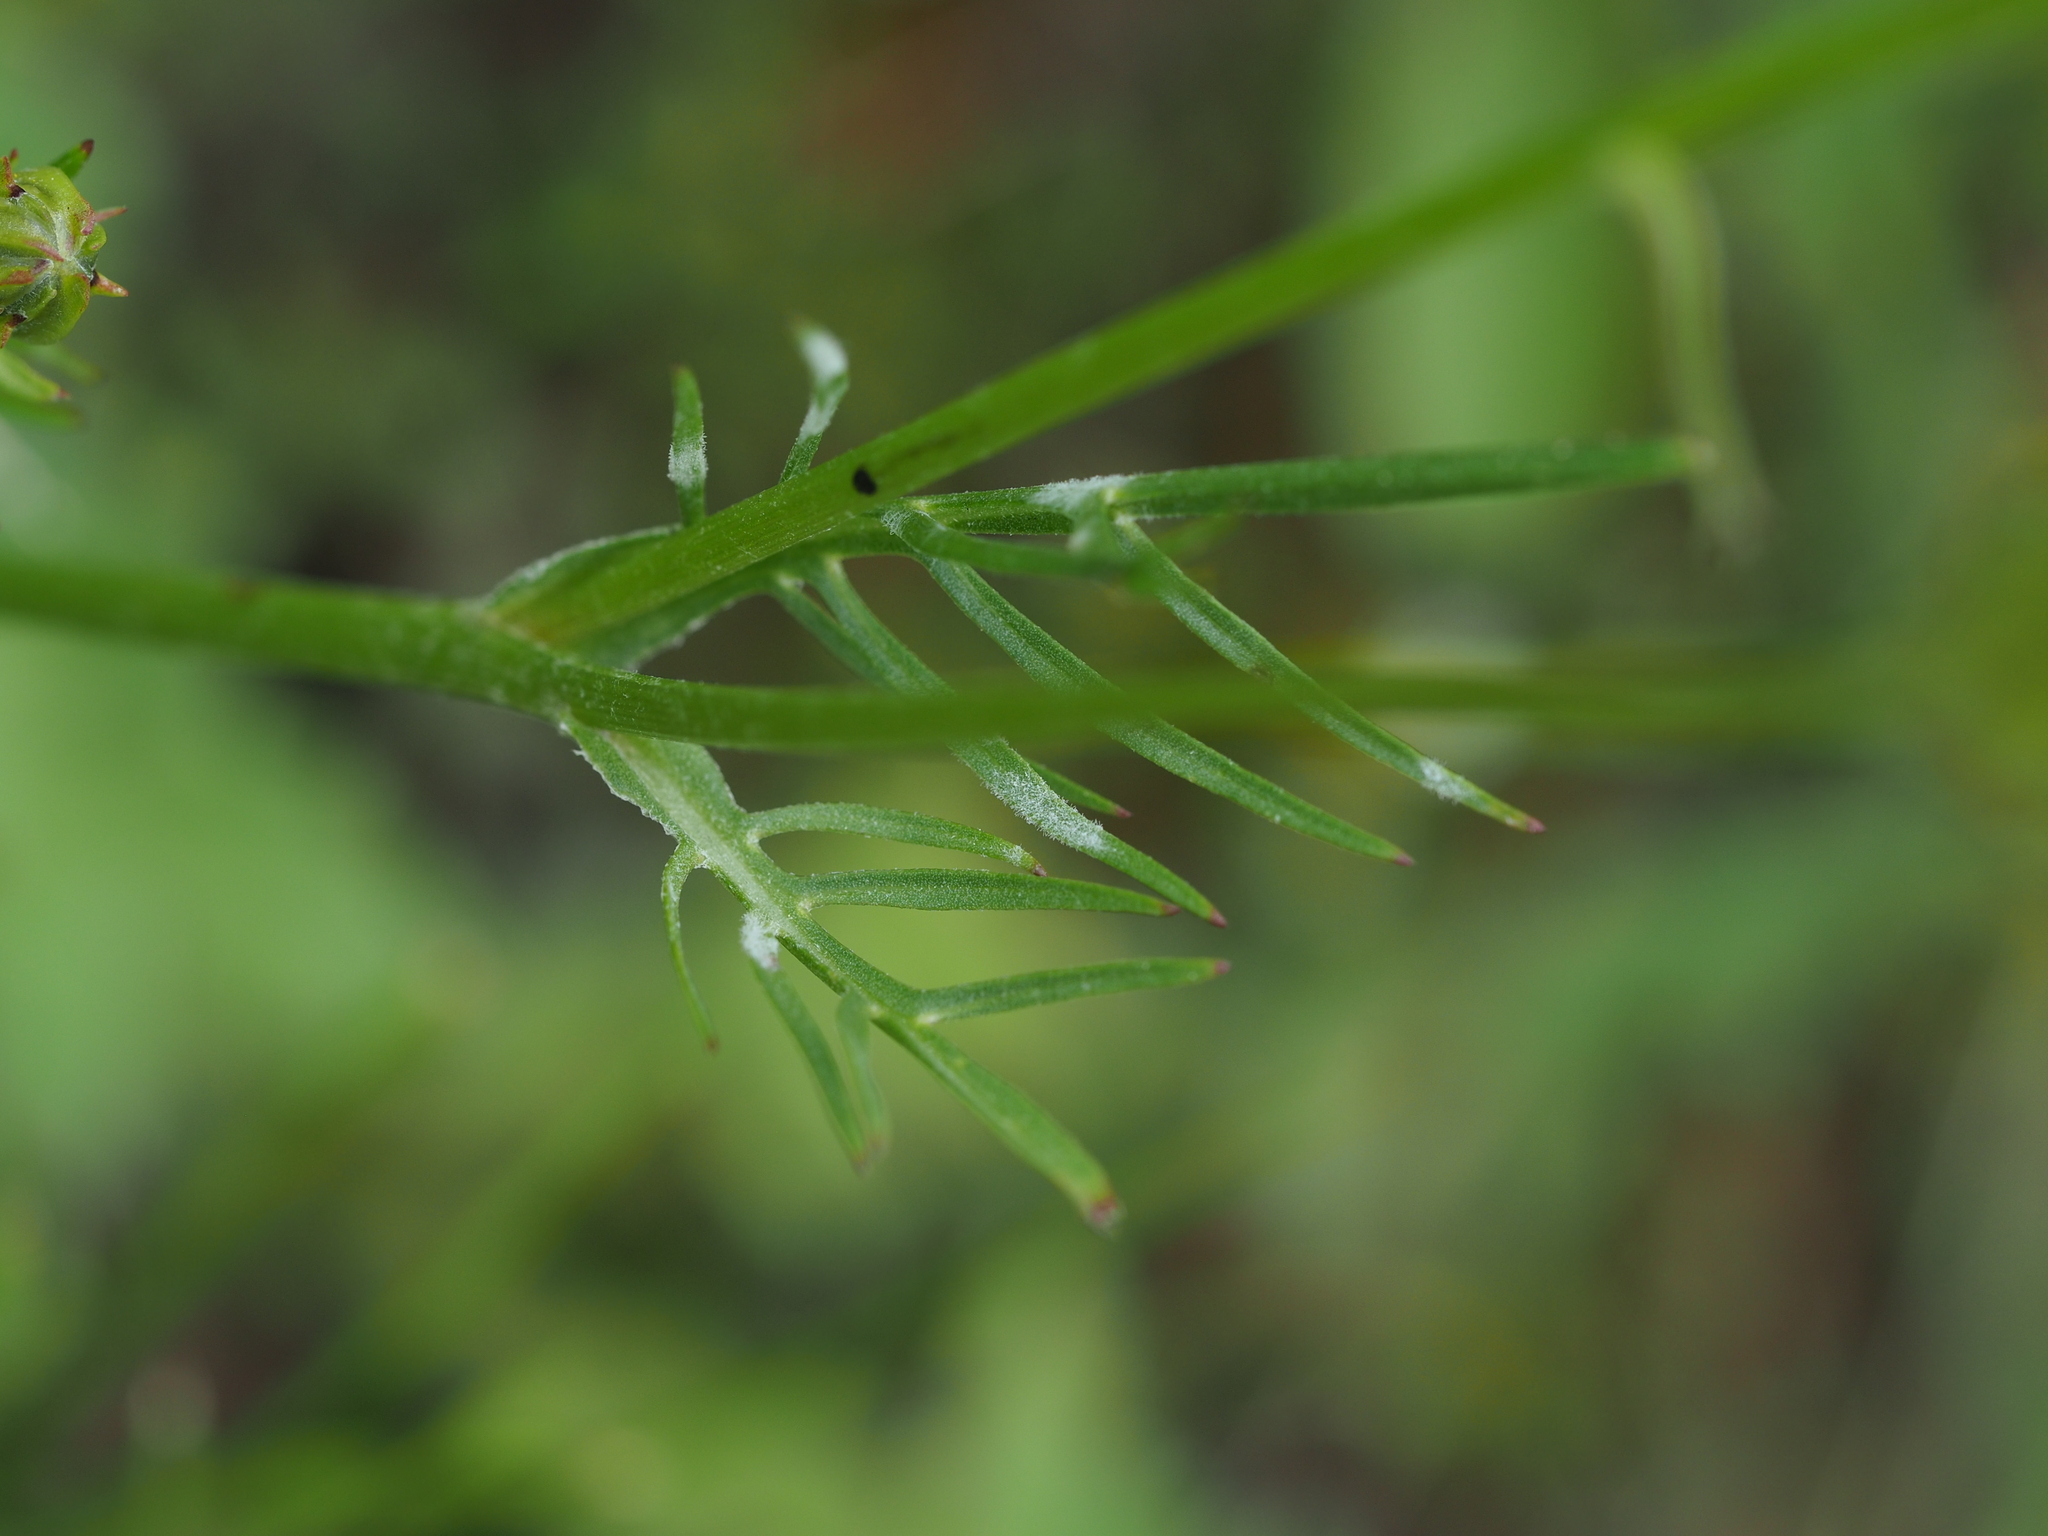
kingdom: Fungi
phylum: Ascomycota
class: Leotiomycetes
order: Helotiales
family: Erysiphaceae
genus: Golovinomyces
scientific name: Golovinomyces cichoracearum
